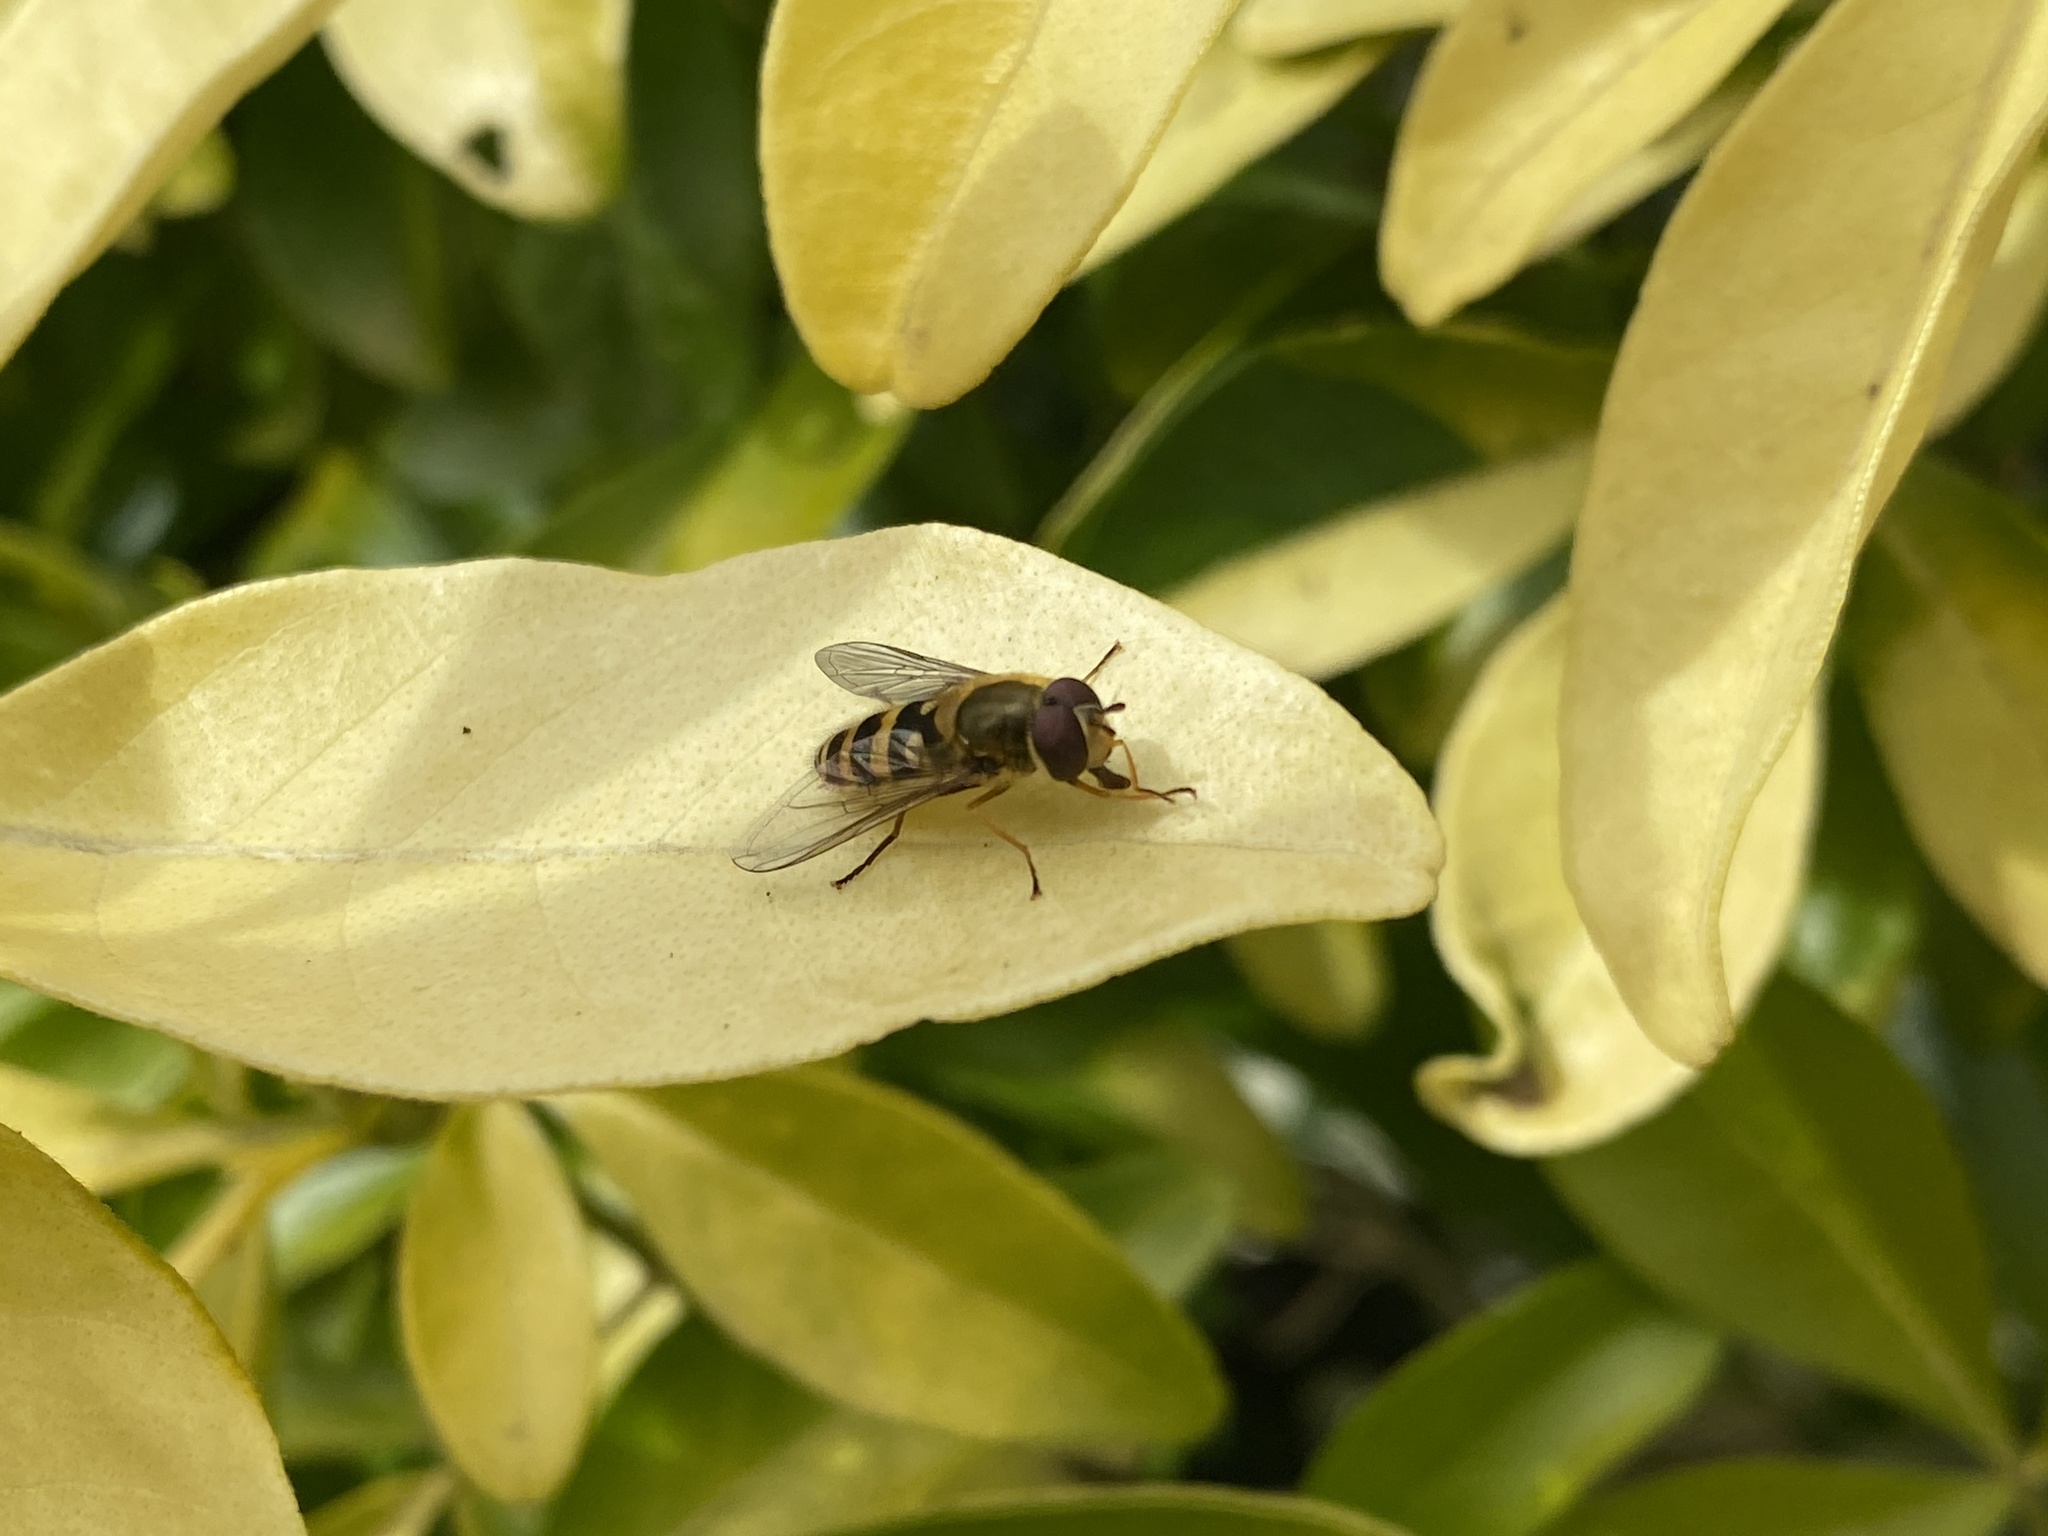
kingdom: Animalia
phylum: Arthropoda
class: Insecta
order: Diptera
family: Syrphidae
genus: Syrphus
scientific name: Syrphus
